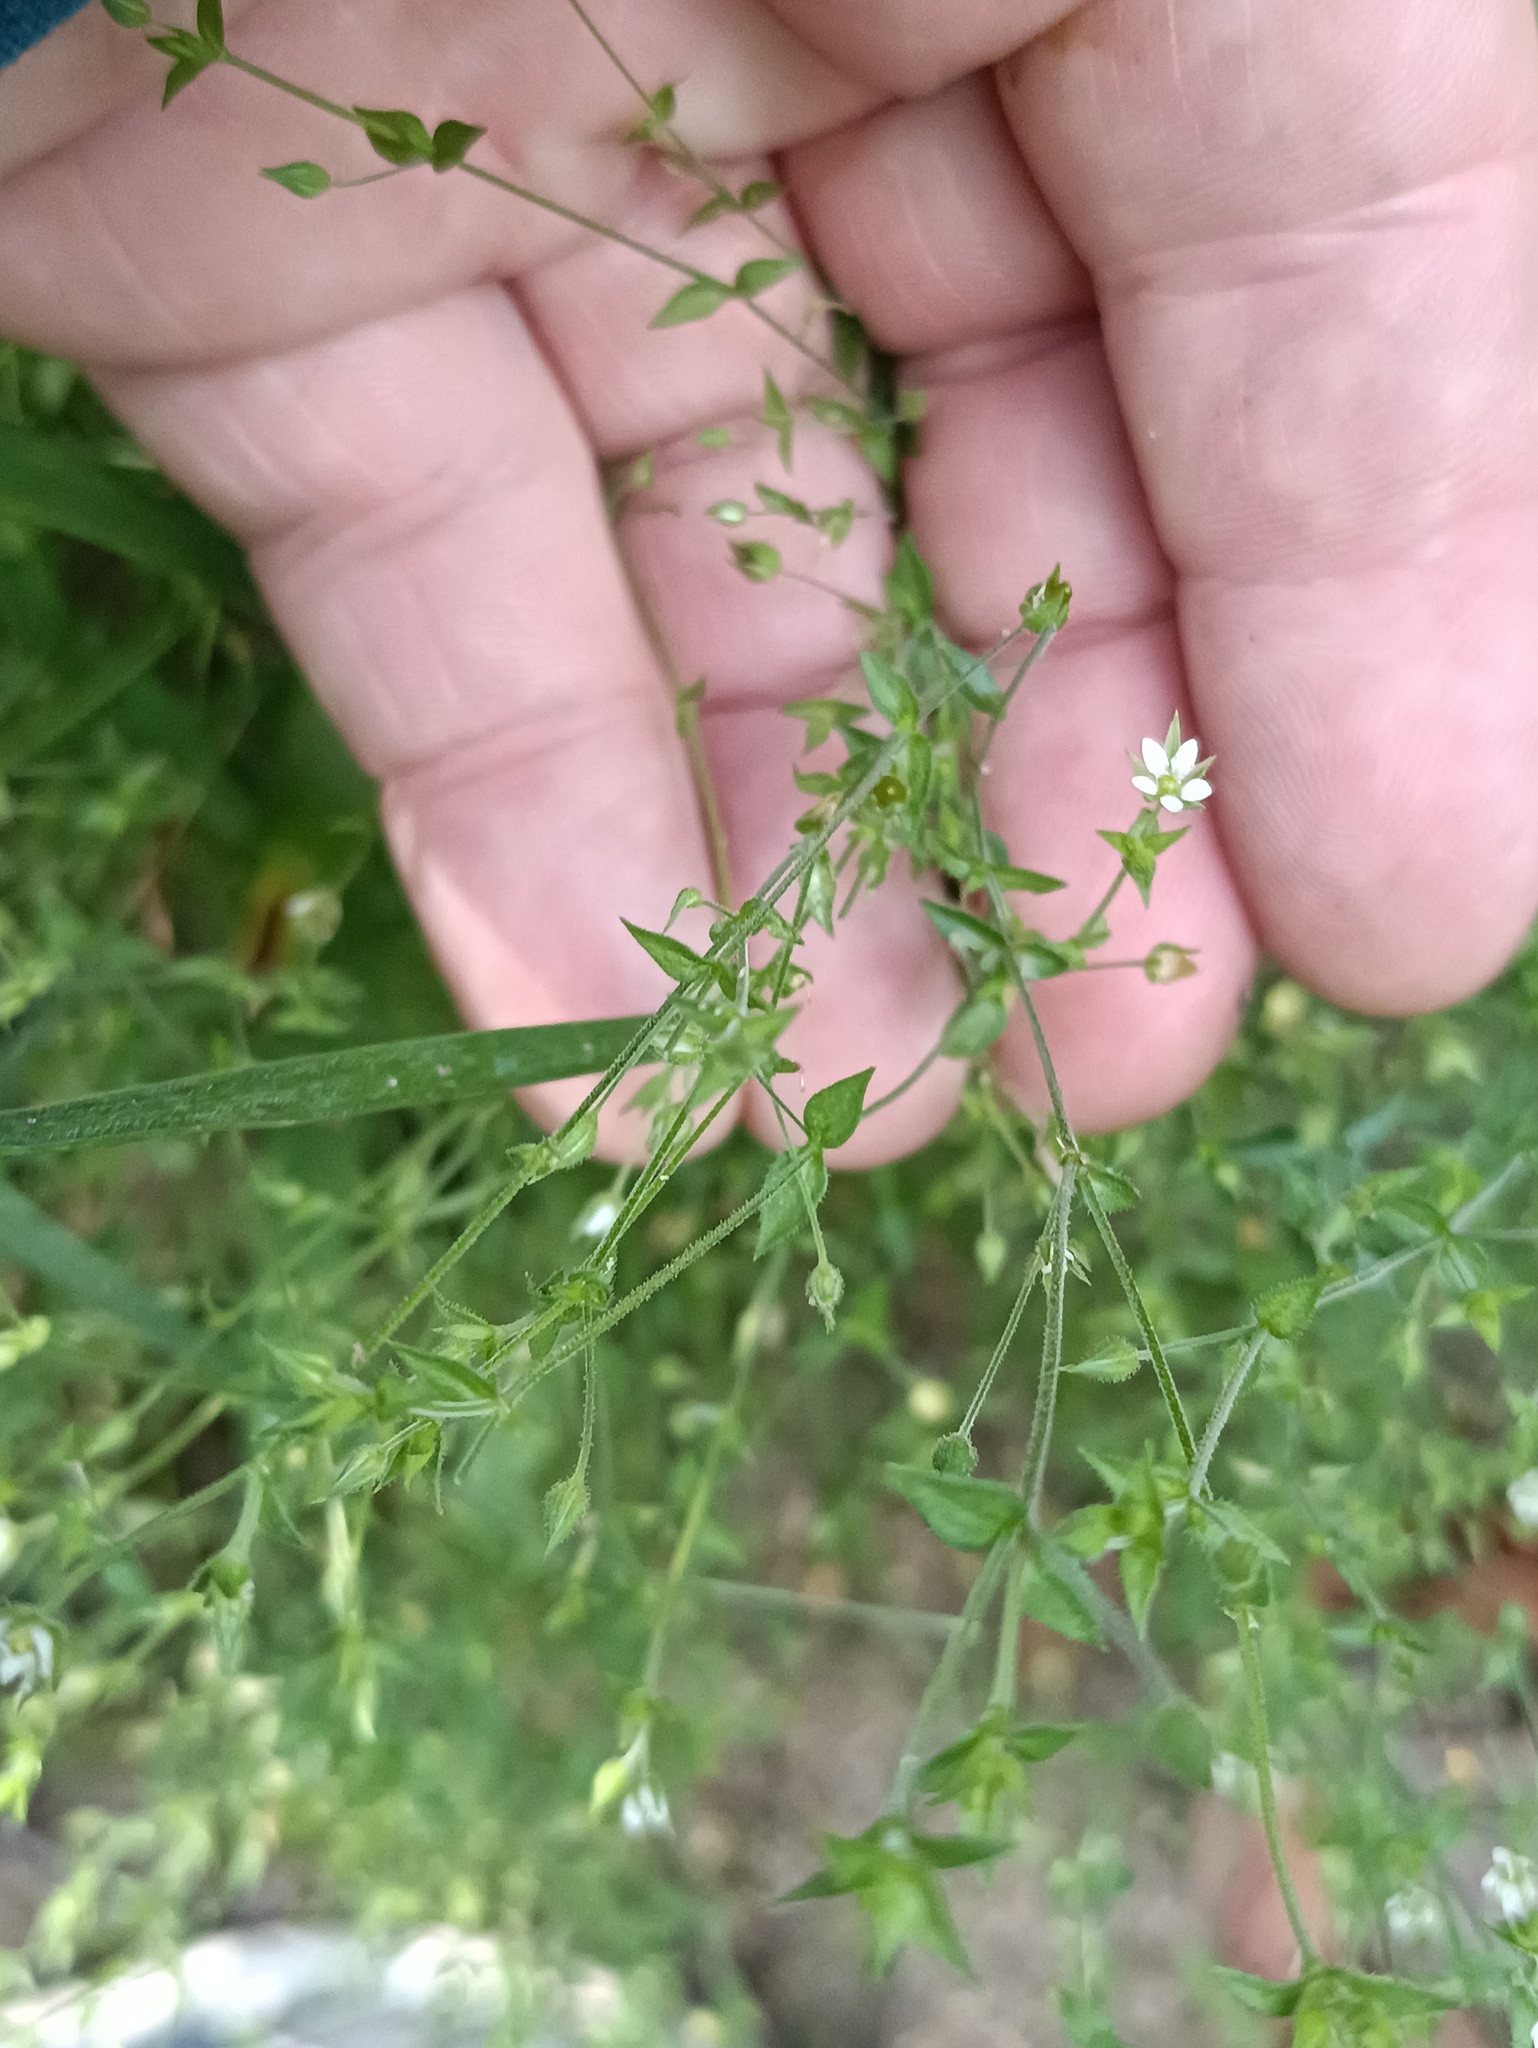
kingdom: Plantae
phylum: Tracheophyta
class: Magnoliopsida
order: Caryophyllales
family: Caryophyllaceae
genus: Arenaria
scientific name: Arenaria serpyllifolia
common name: Thyme-leaved sandwort
